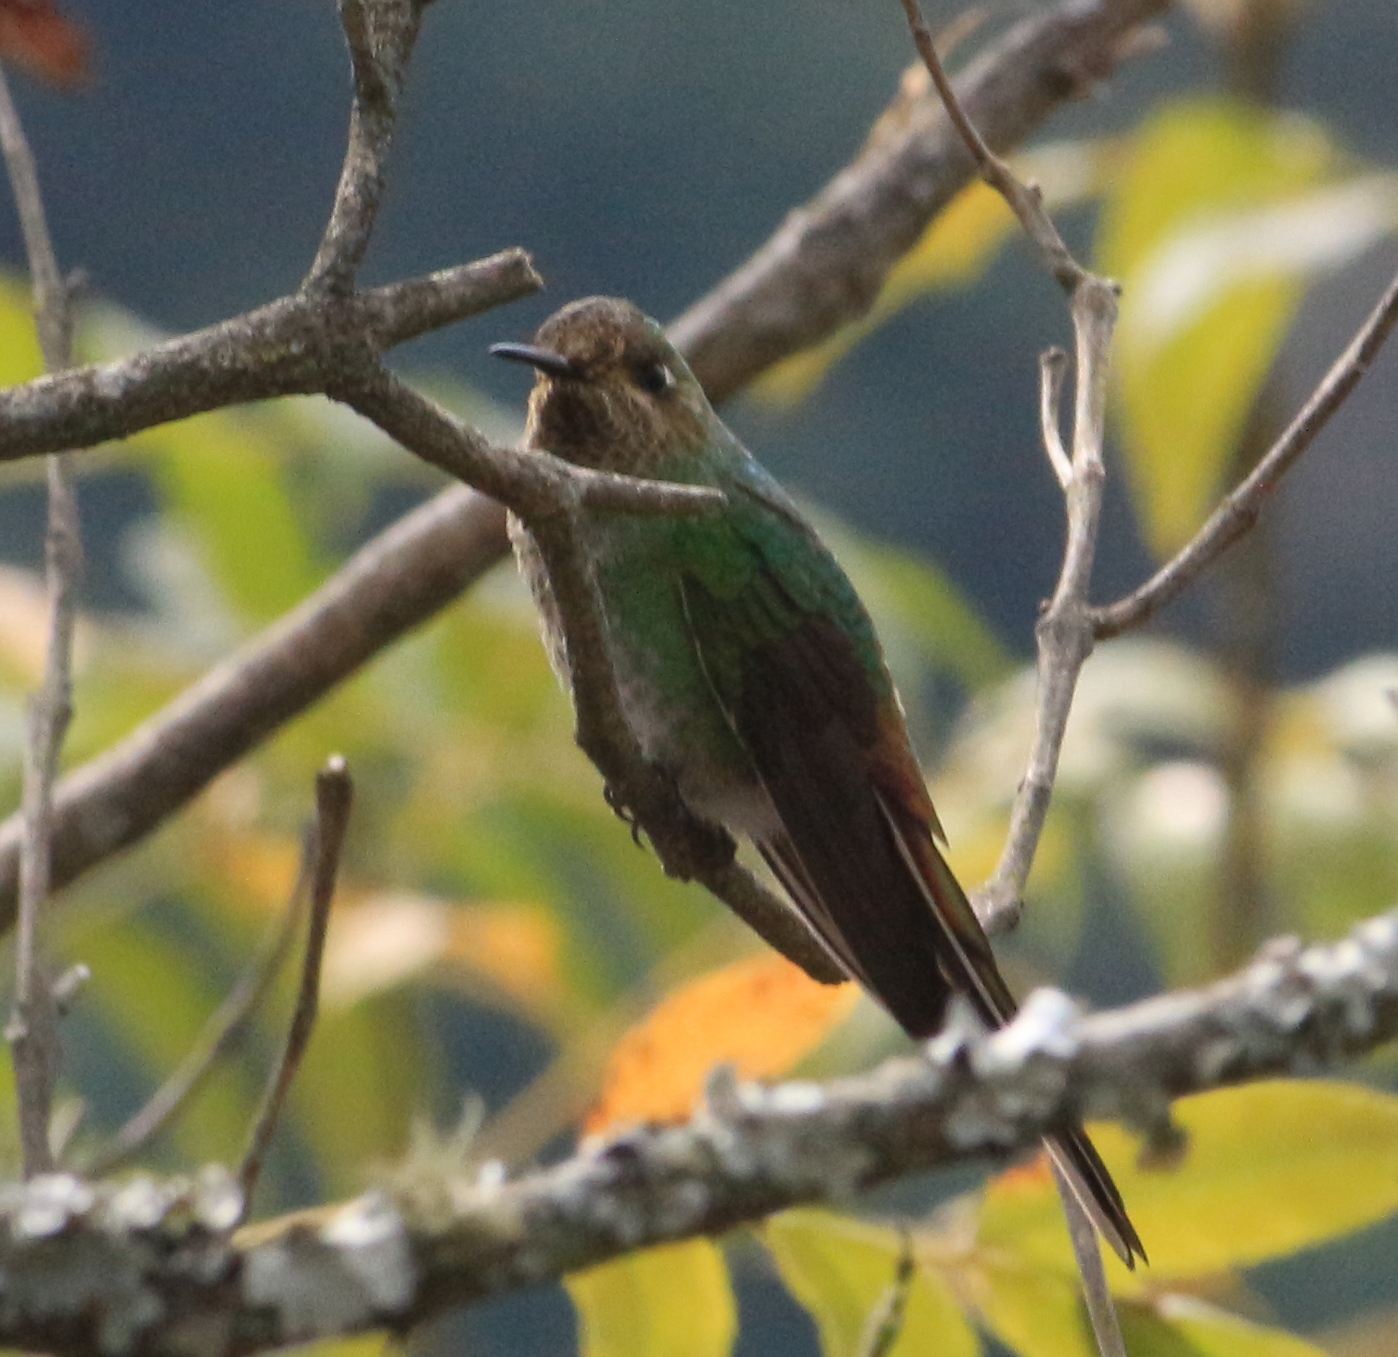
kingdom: Animalia
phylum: Chordata
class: Aves
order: Apodiformes
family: Trochilidae
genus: Sappho
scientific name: Sappho sparganurus
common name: Red-tailed comet
